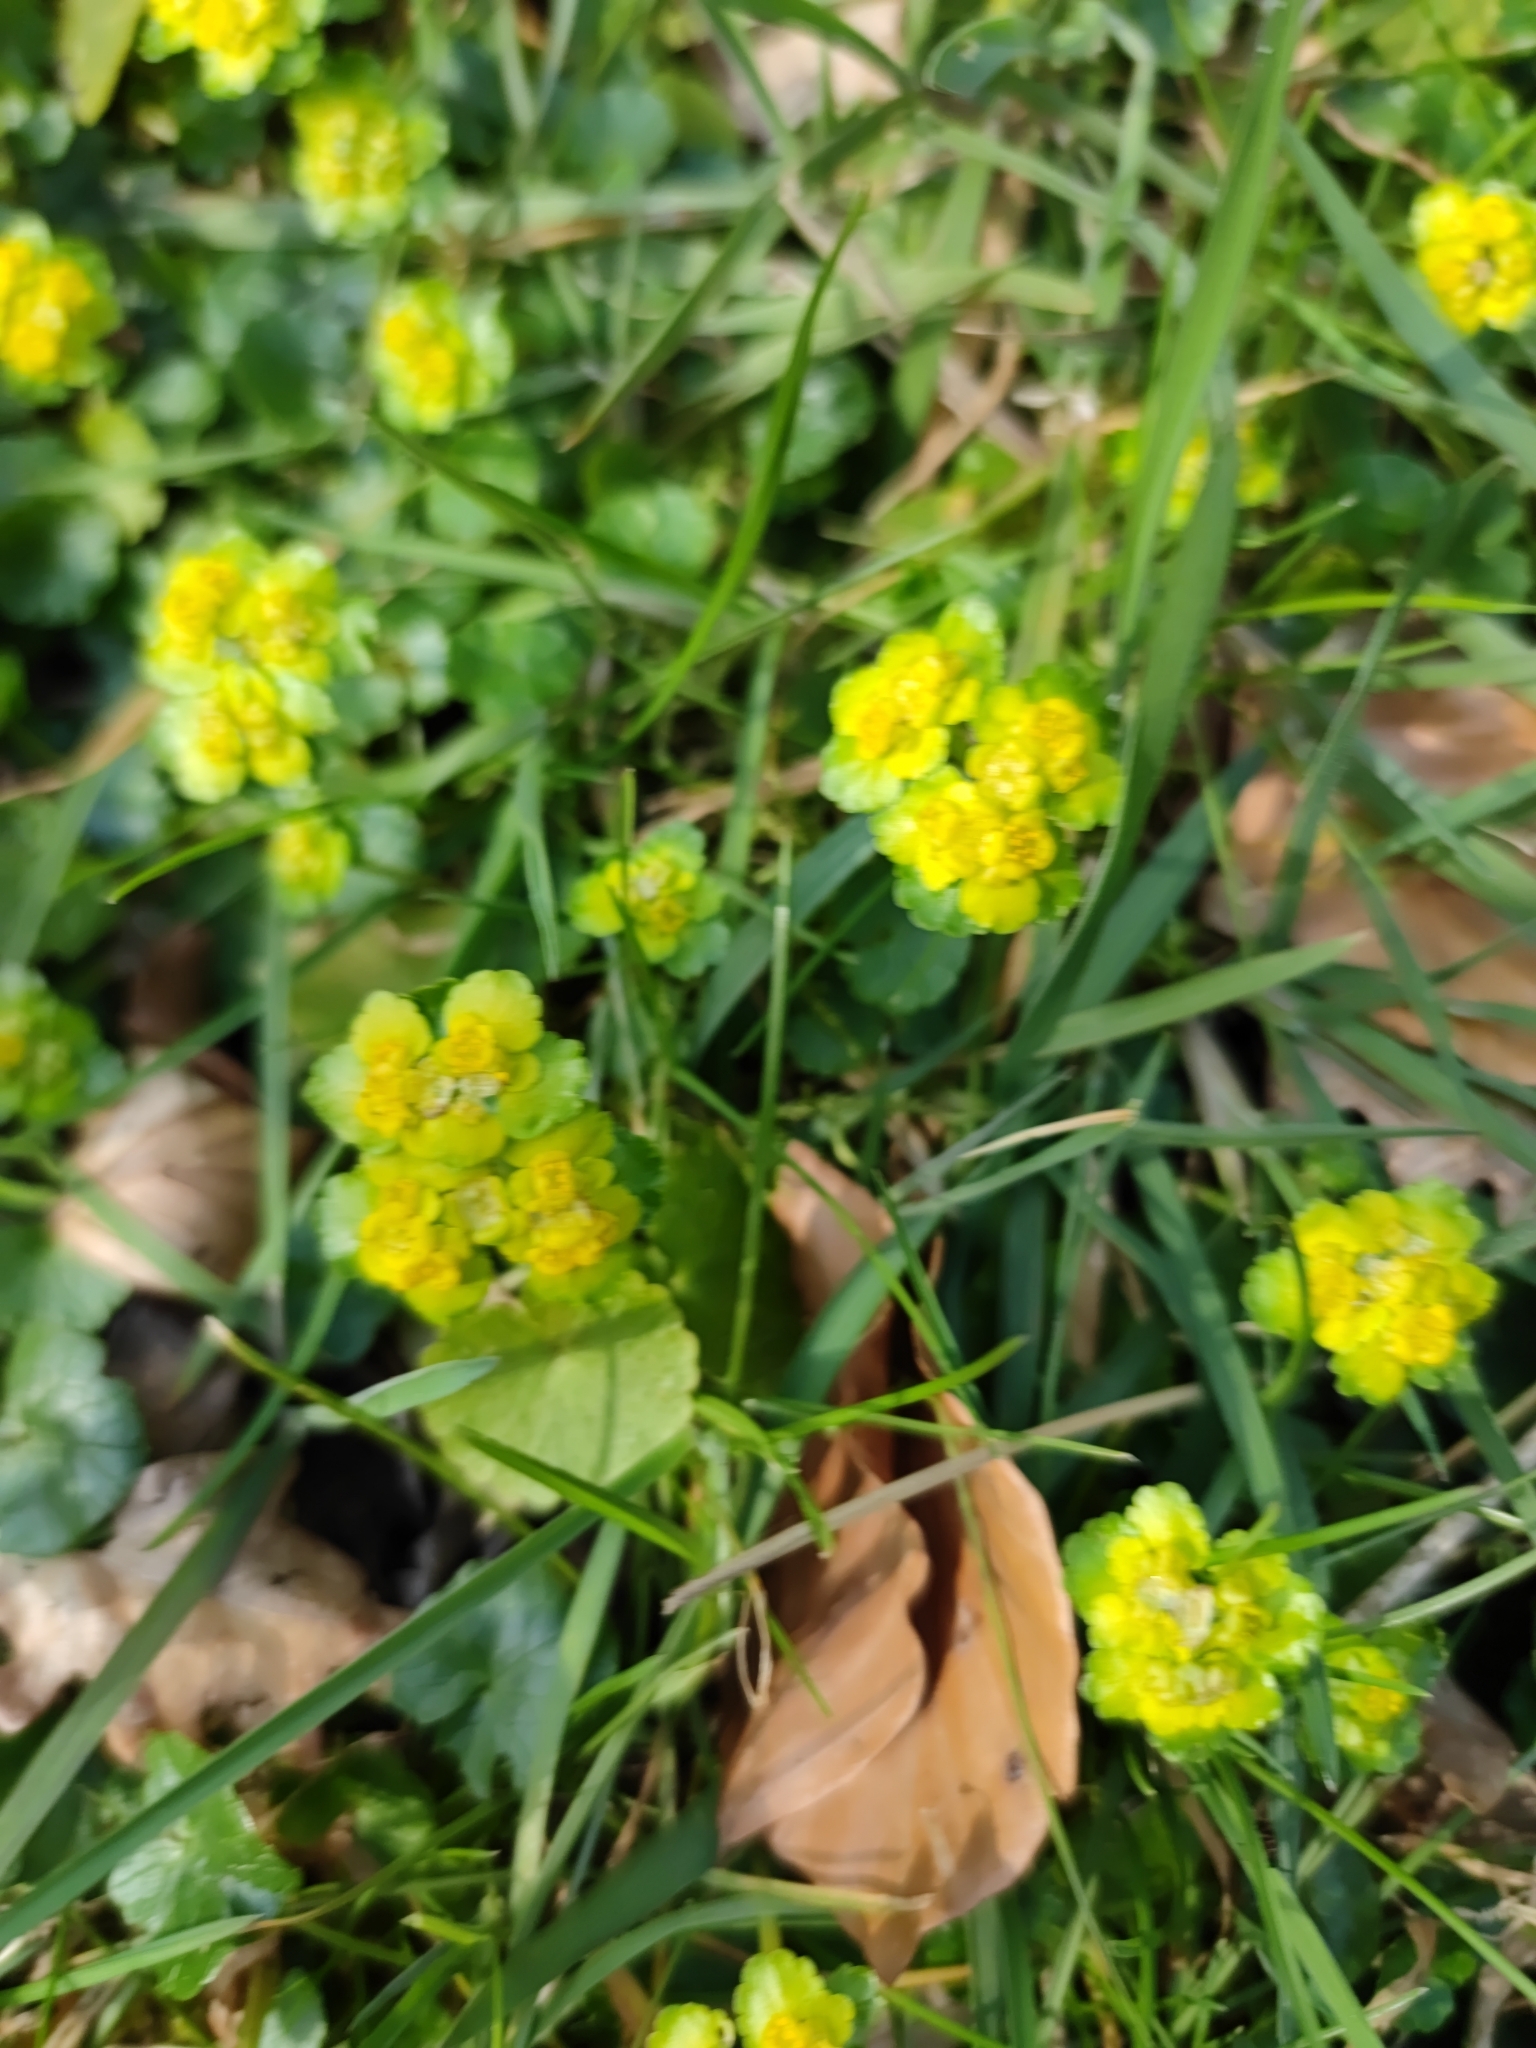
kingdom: Plantae
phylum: Tracheophyta
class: Magnoliopsida
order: Saxifragales
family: Saxifragaceae
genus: Chrysosplenium
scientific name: Chrysosplenium alternifolium
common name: Alternate-leaved golden-saxifrage
